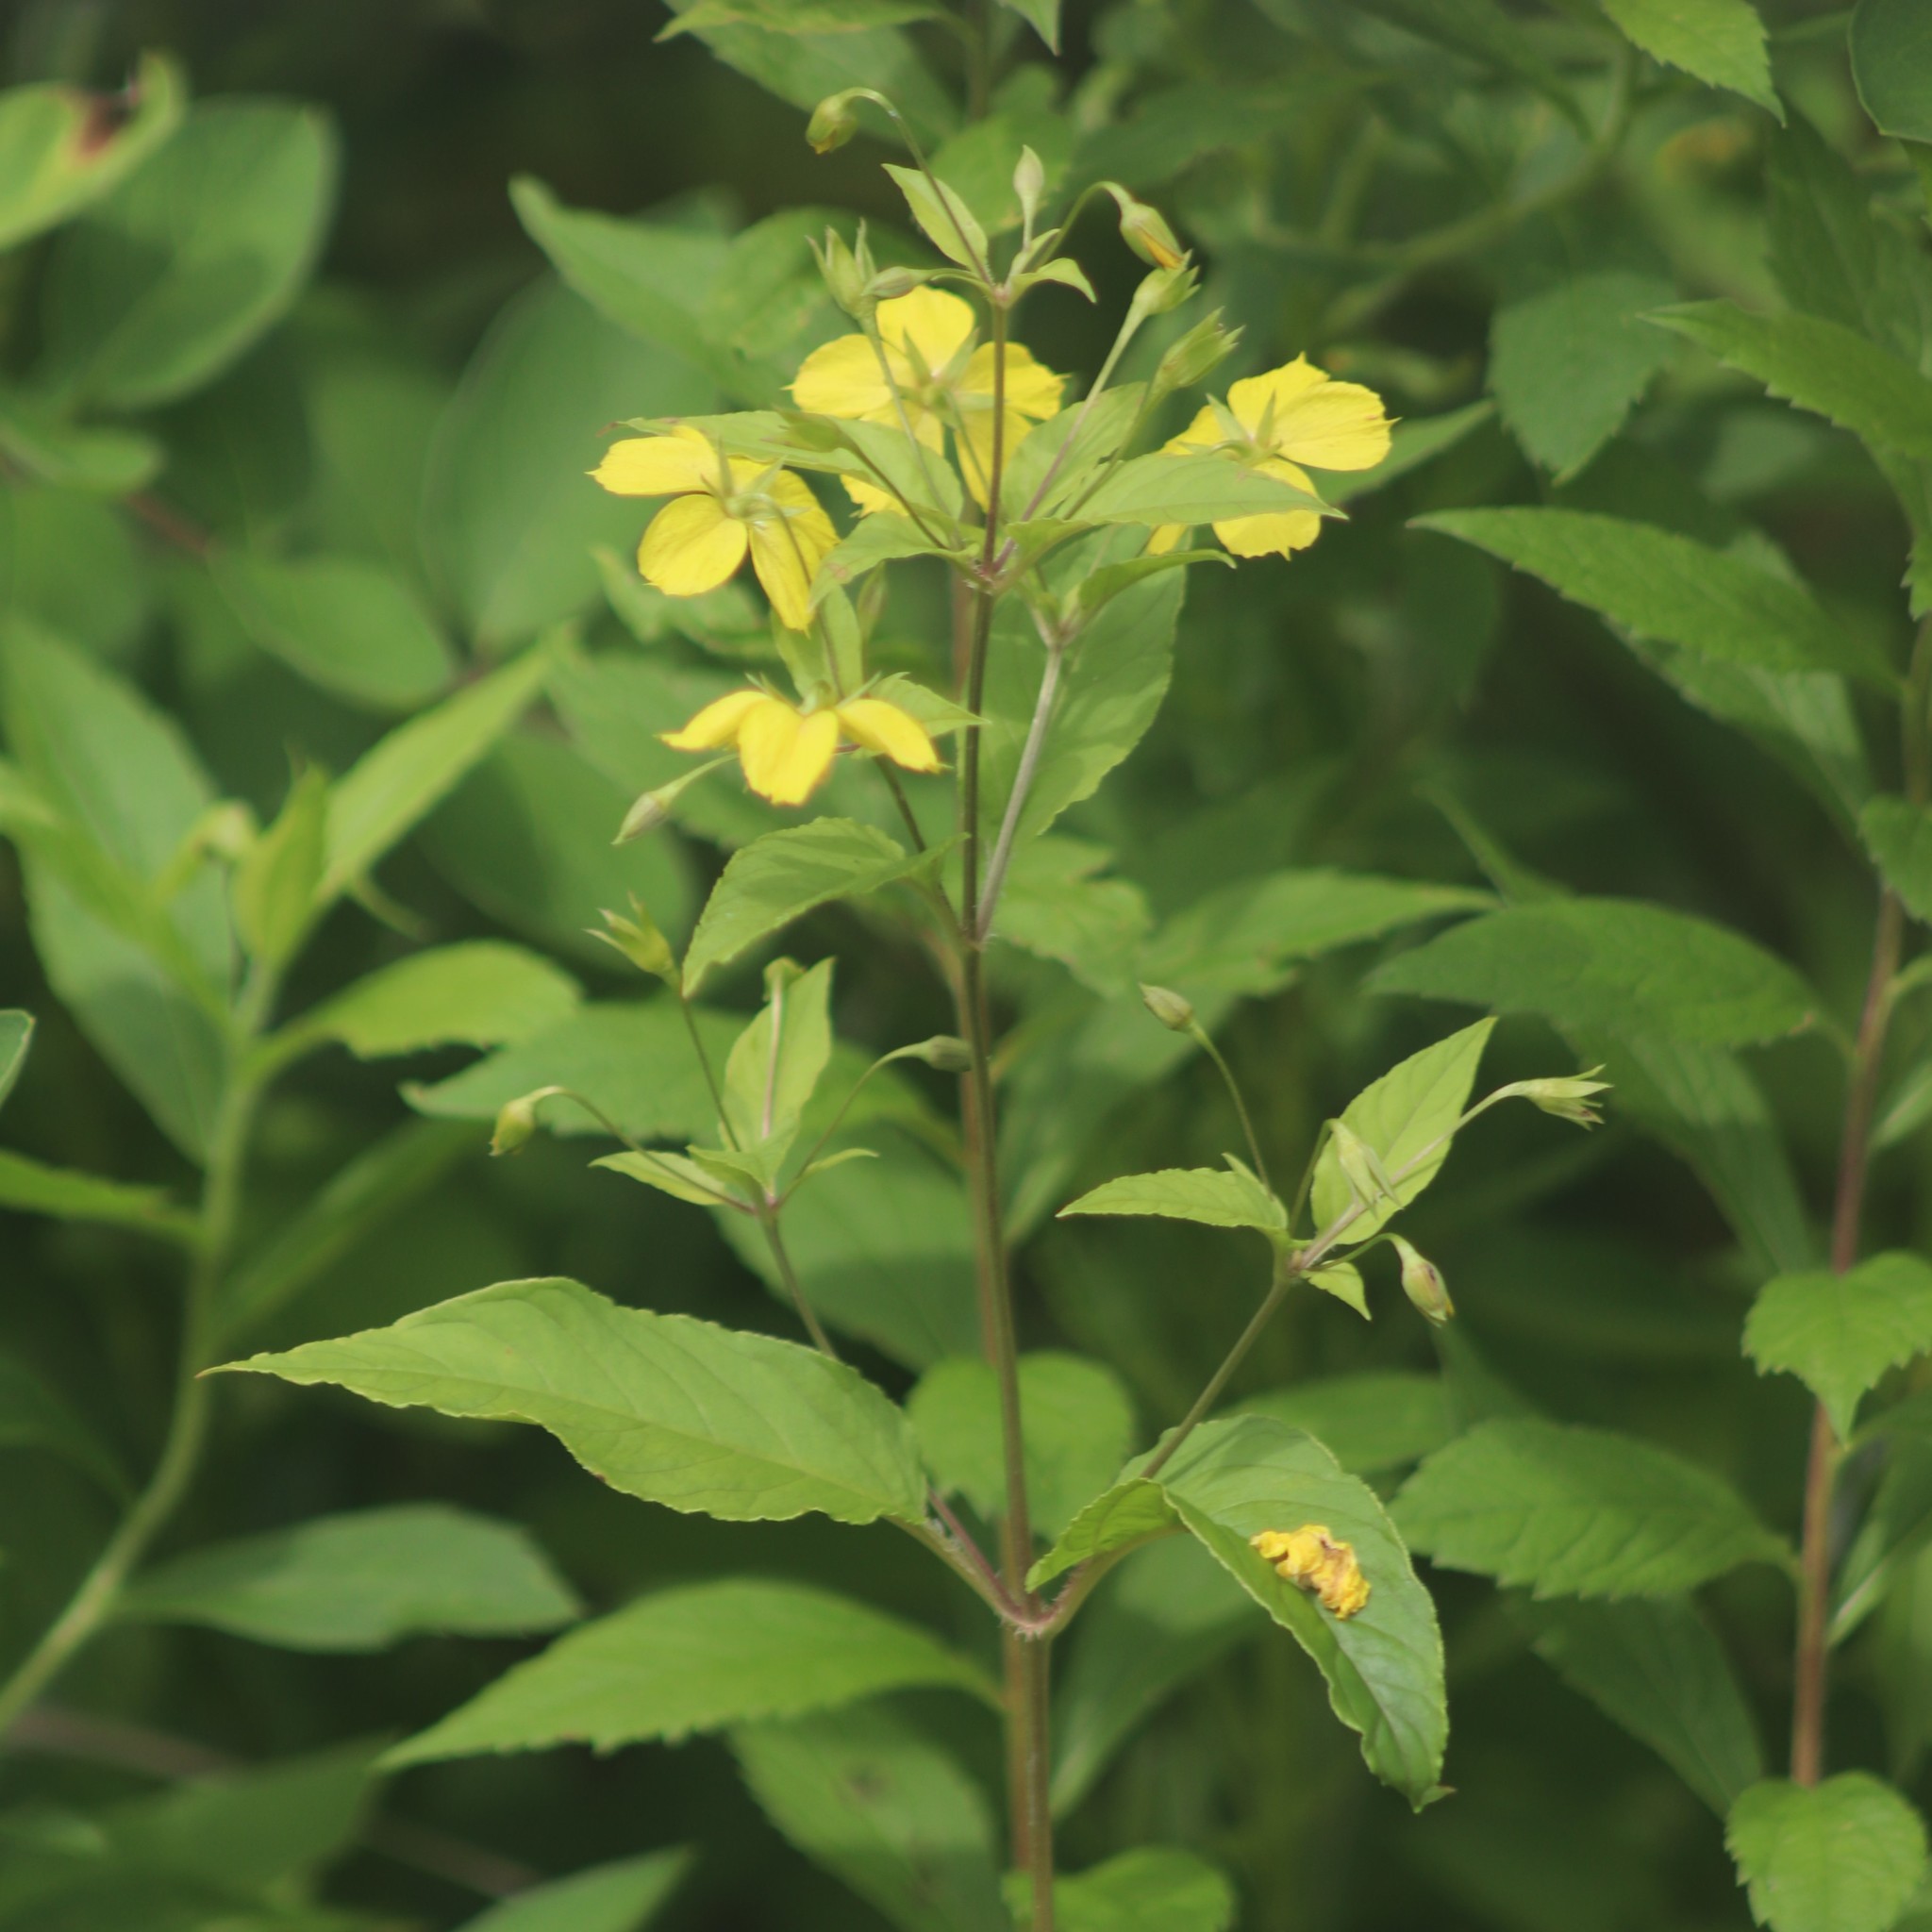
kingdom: Plantae
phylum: Tracheophyta
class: Magnoliopsida
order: Ericales
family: Primulaceae
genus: Lysimachia
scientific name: Lysimachia ciliata
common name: Fringed loosestrife
